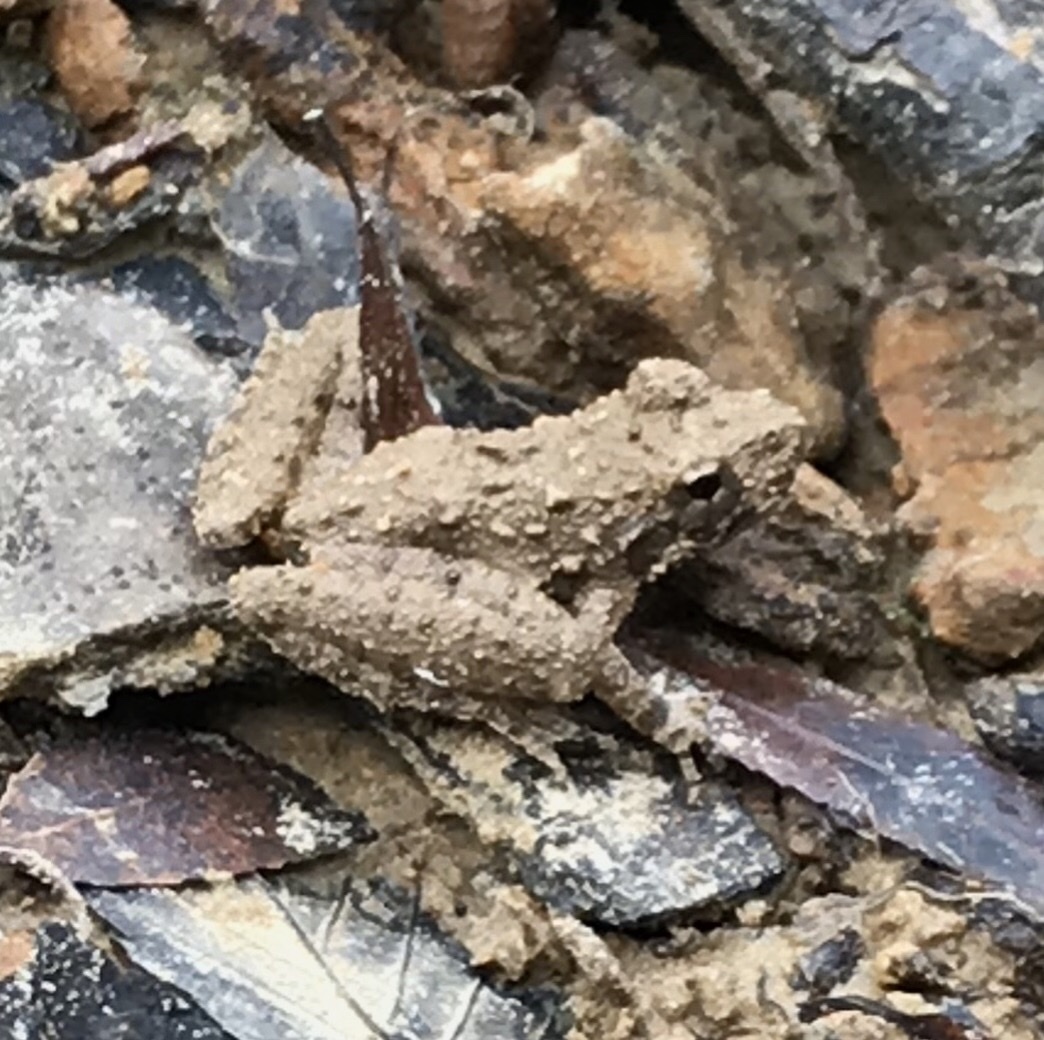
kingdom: Animalia
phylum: Chordata
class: Amphibia
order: Anura
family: Hylidae
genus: Acris
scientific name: Acris blanchardi
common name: Blanchard's cricket frog
